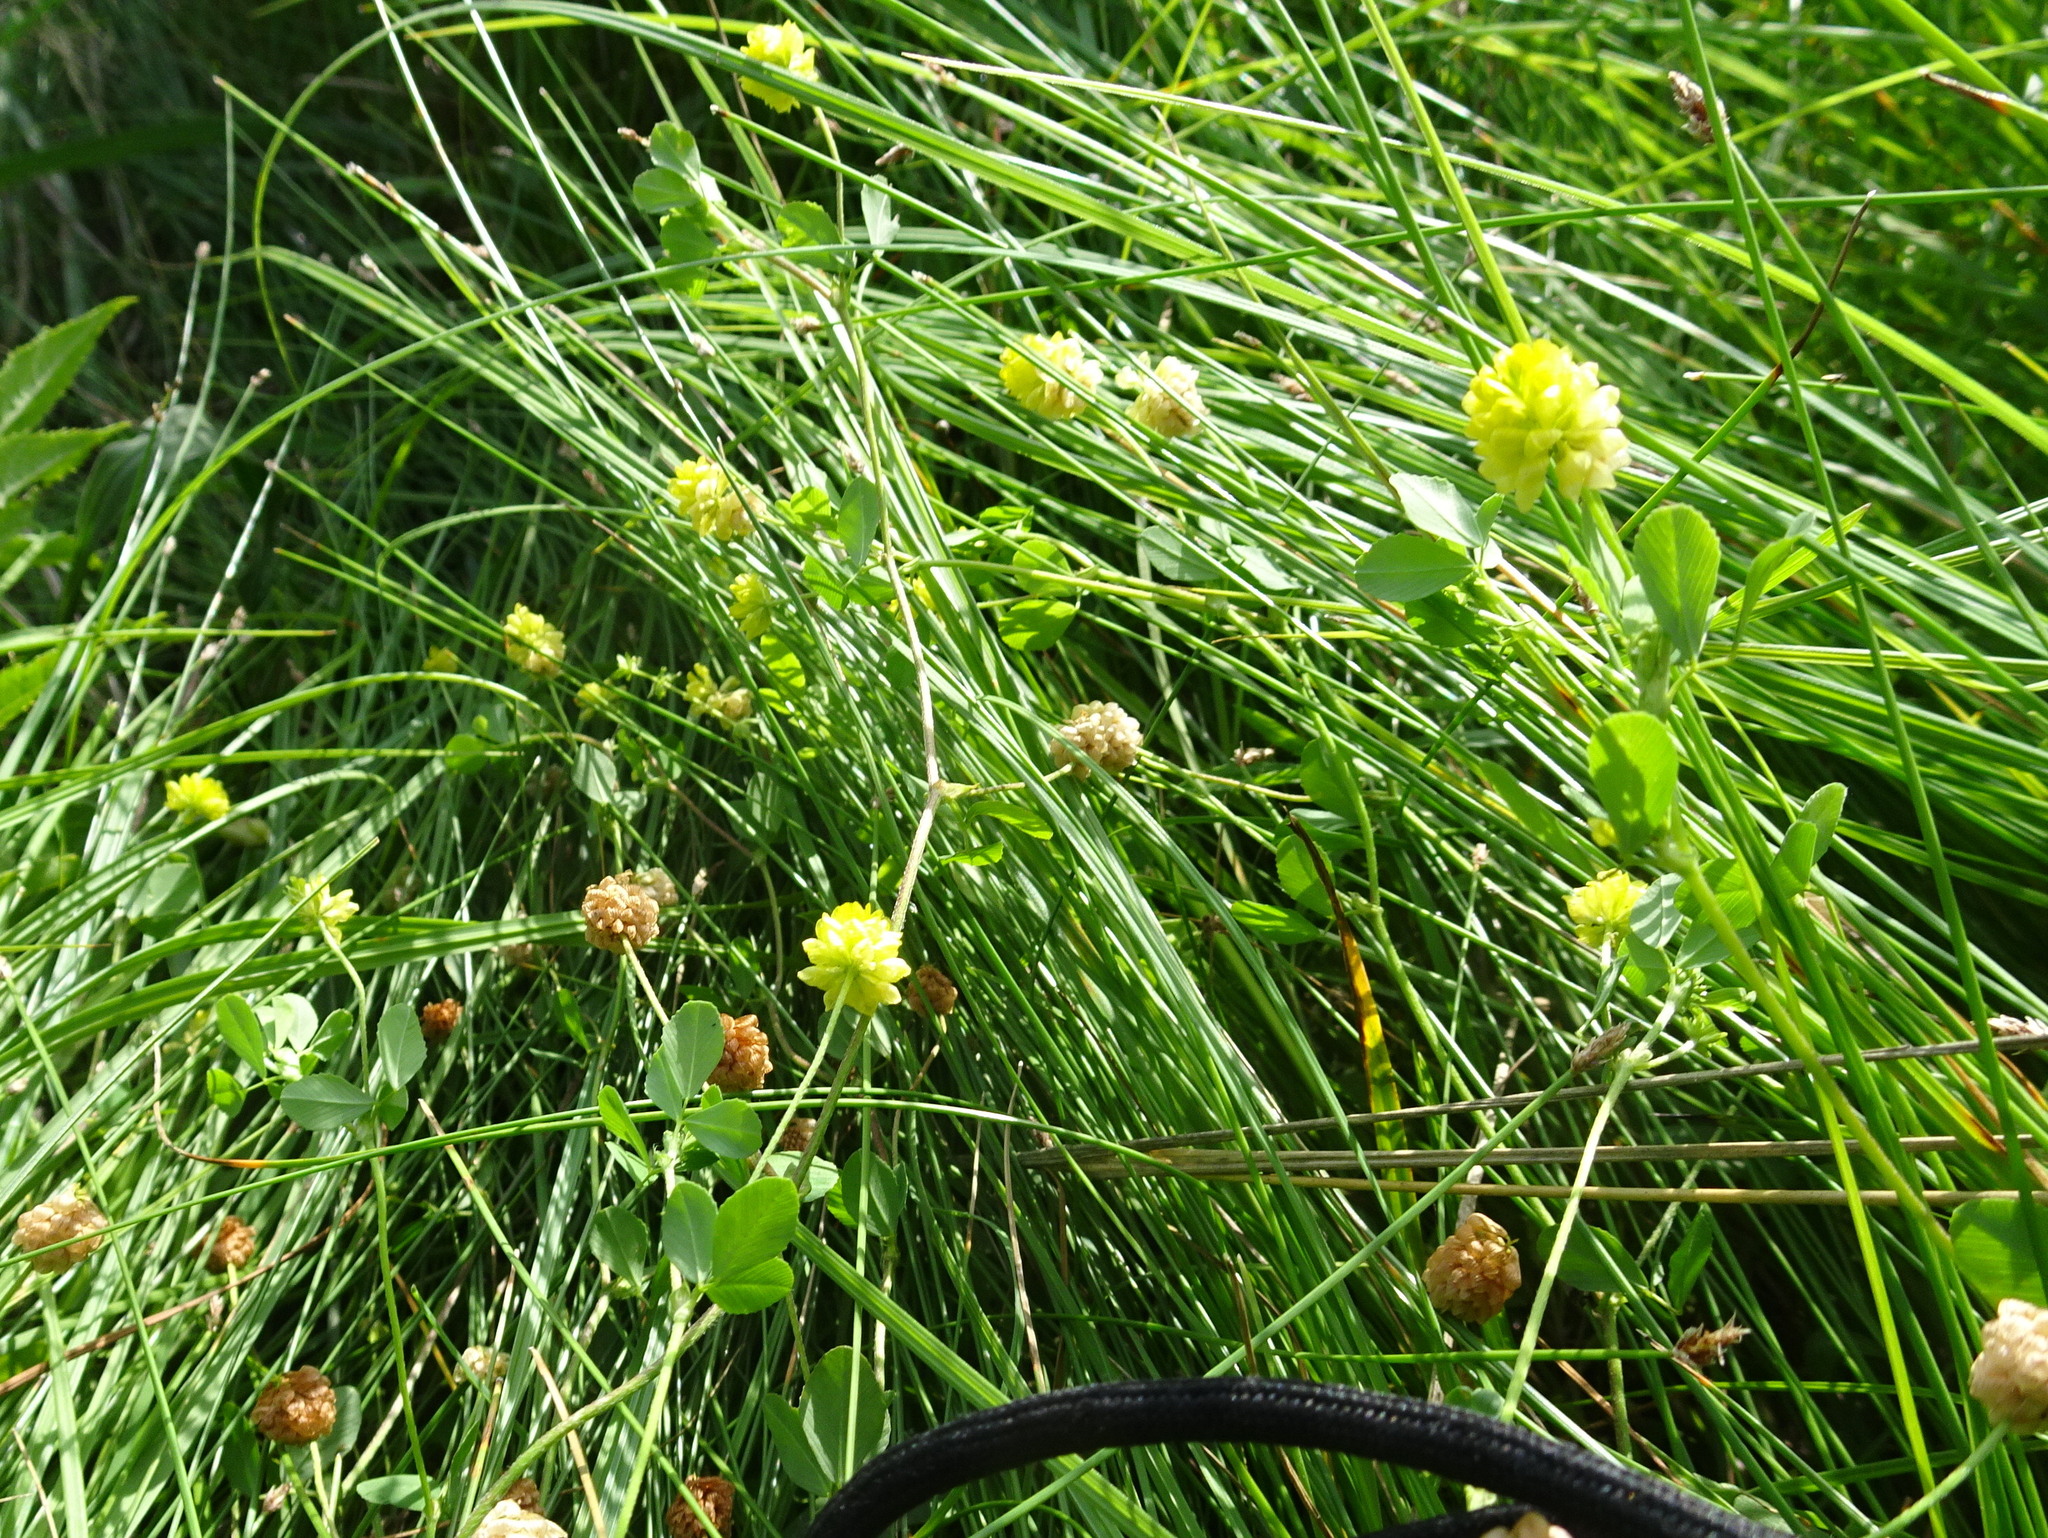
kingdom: Plantae
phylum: Tracheophyta
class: Magnoliopsida
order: Fabales
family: Fabaceae
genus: Trifolium
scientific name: Trifolium campestre
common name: Field clover
